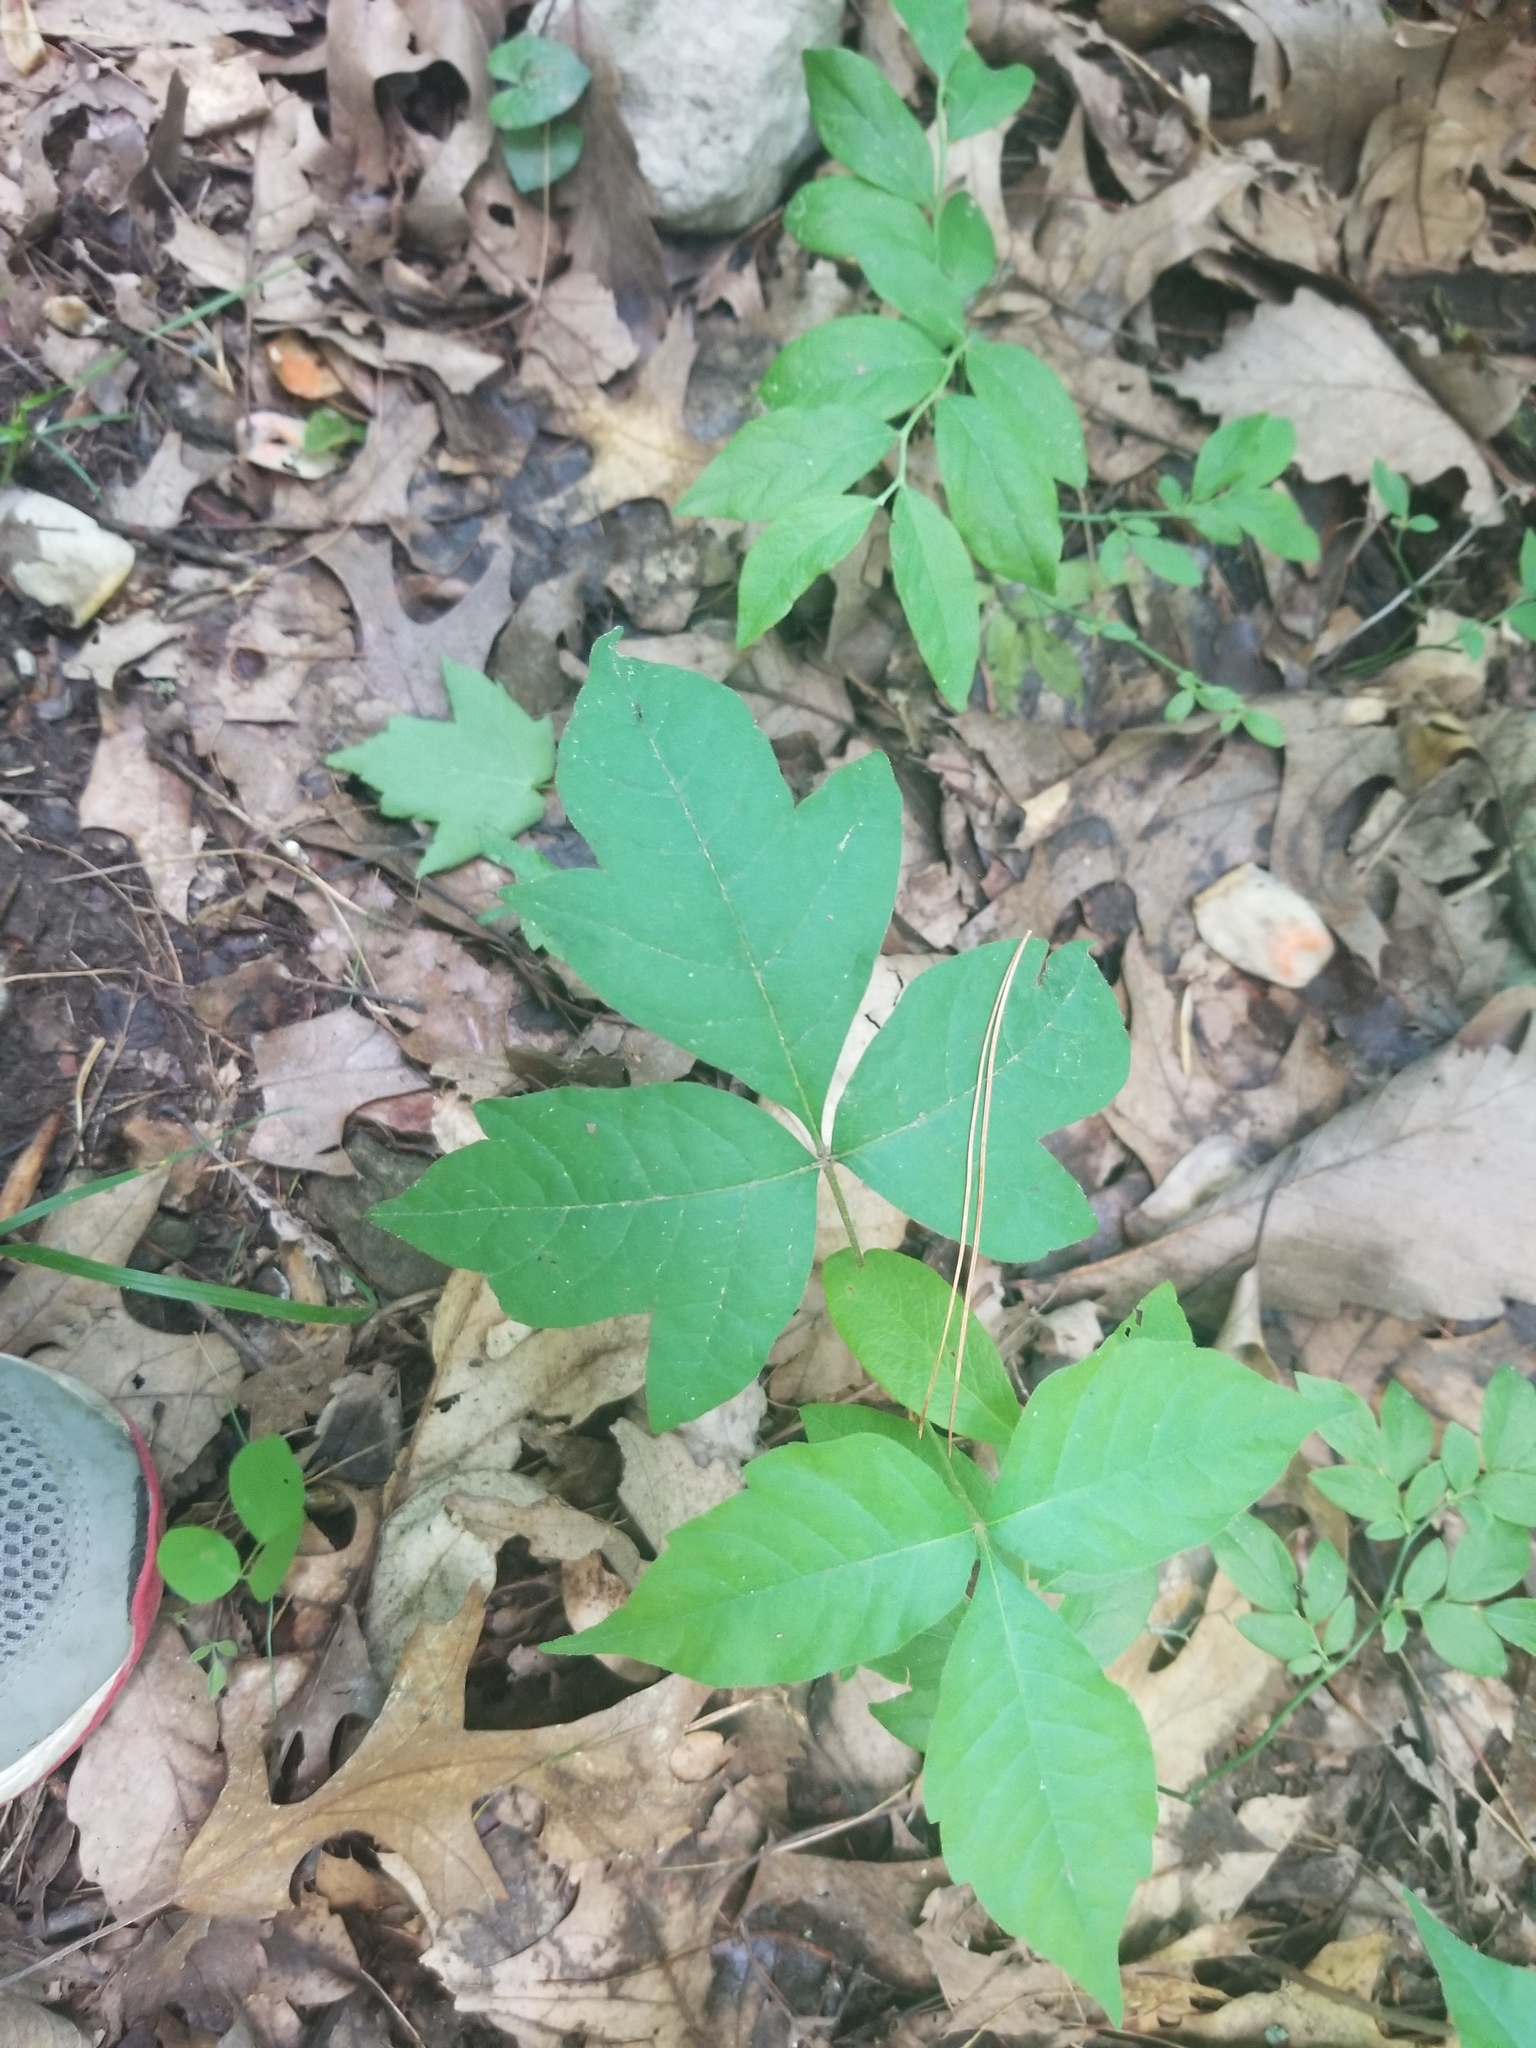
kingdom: Plantae
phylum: Tracheophyta
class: Magnoliopsida
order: Sapindales
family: Anacardiaceae
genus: Toxicodendron
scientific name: Toxicodendron radicans
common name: Poison ivy
